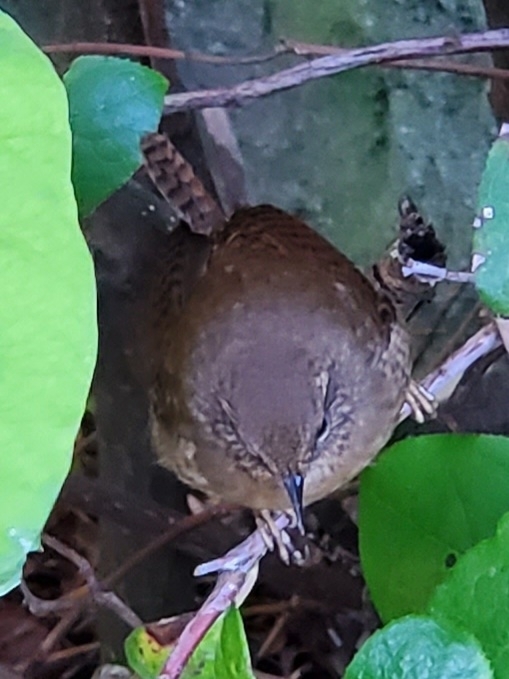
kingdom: Animalia
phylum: Chordata
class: Aves
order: Passeriformes
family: Troglodytidae
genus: Troglodytes
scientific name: Troglodytes pacificus
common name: Pacific wren
